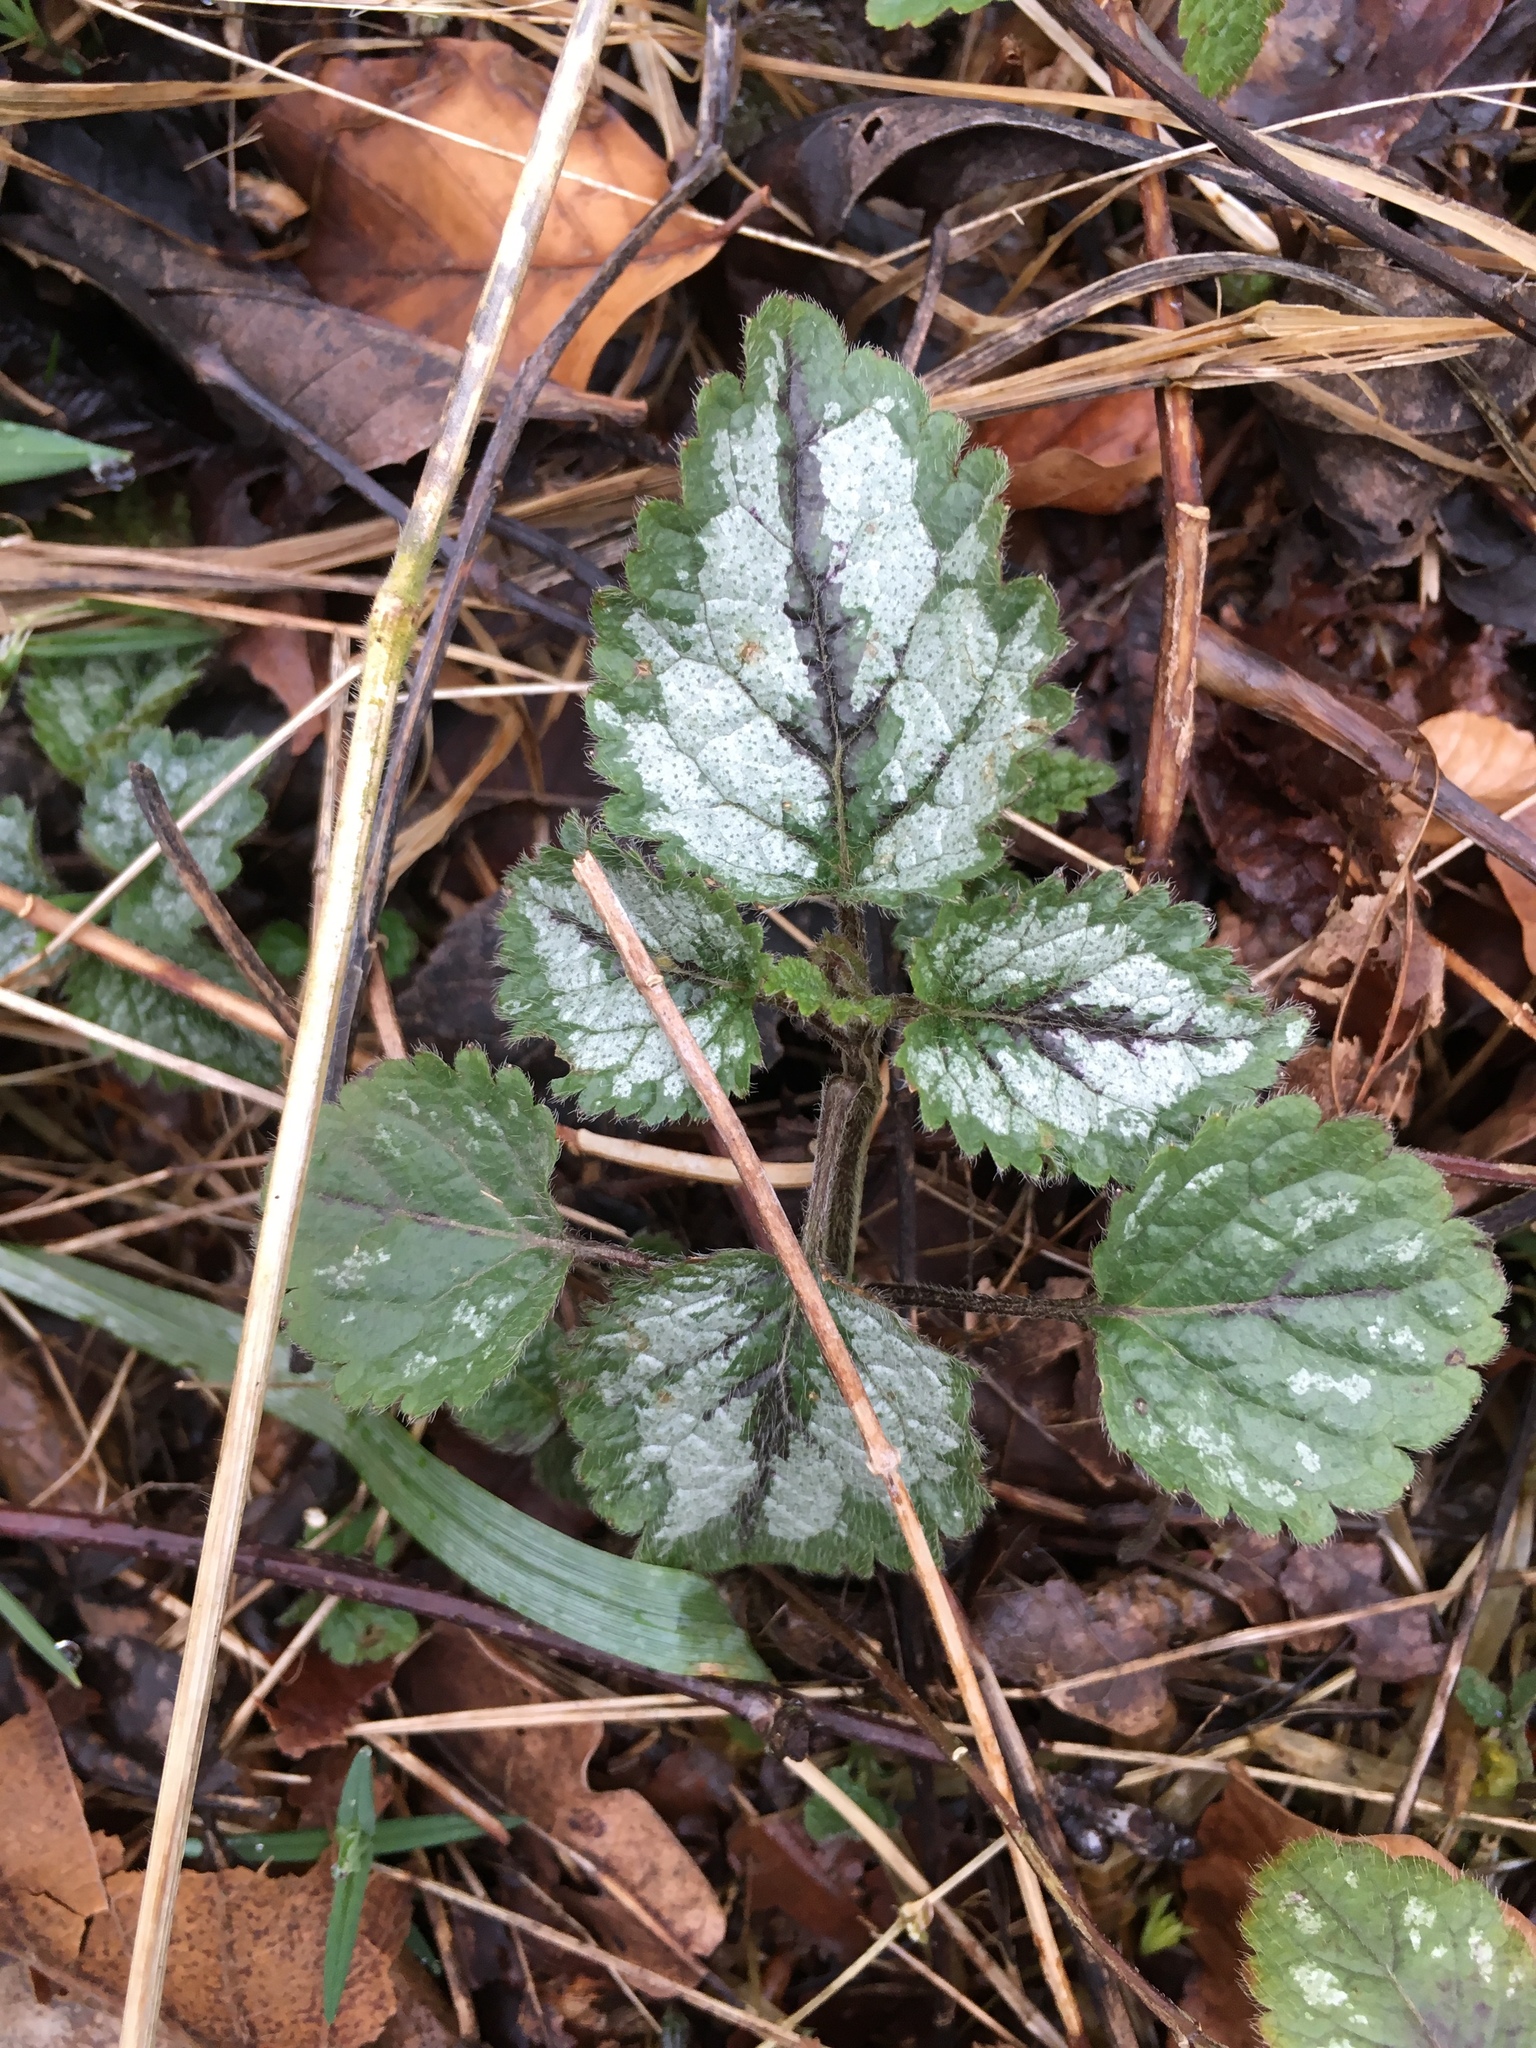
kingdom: Plantae
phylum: Tracheophyta
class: Magnoliopsida
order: Lamiales
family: Lamiaceae
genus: Lamium
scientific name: Lamium galeobdolon
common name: Yellow archangel
